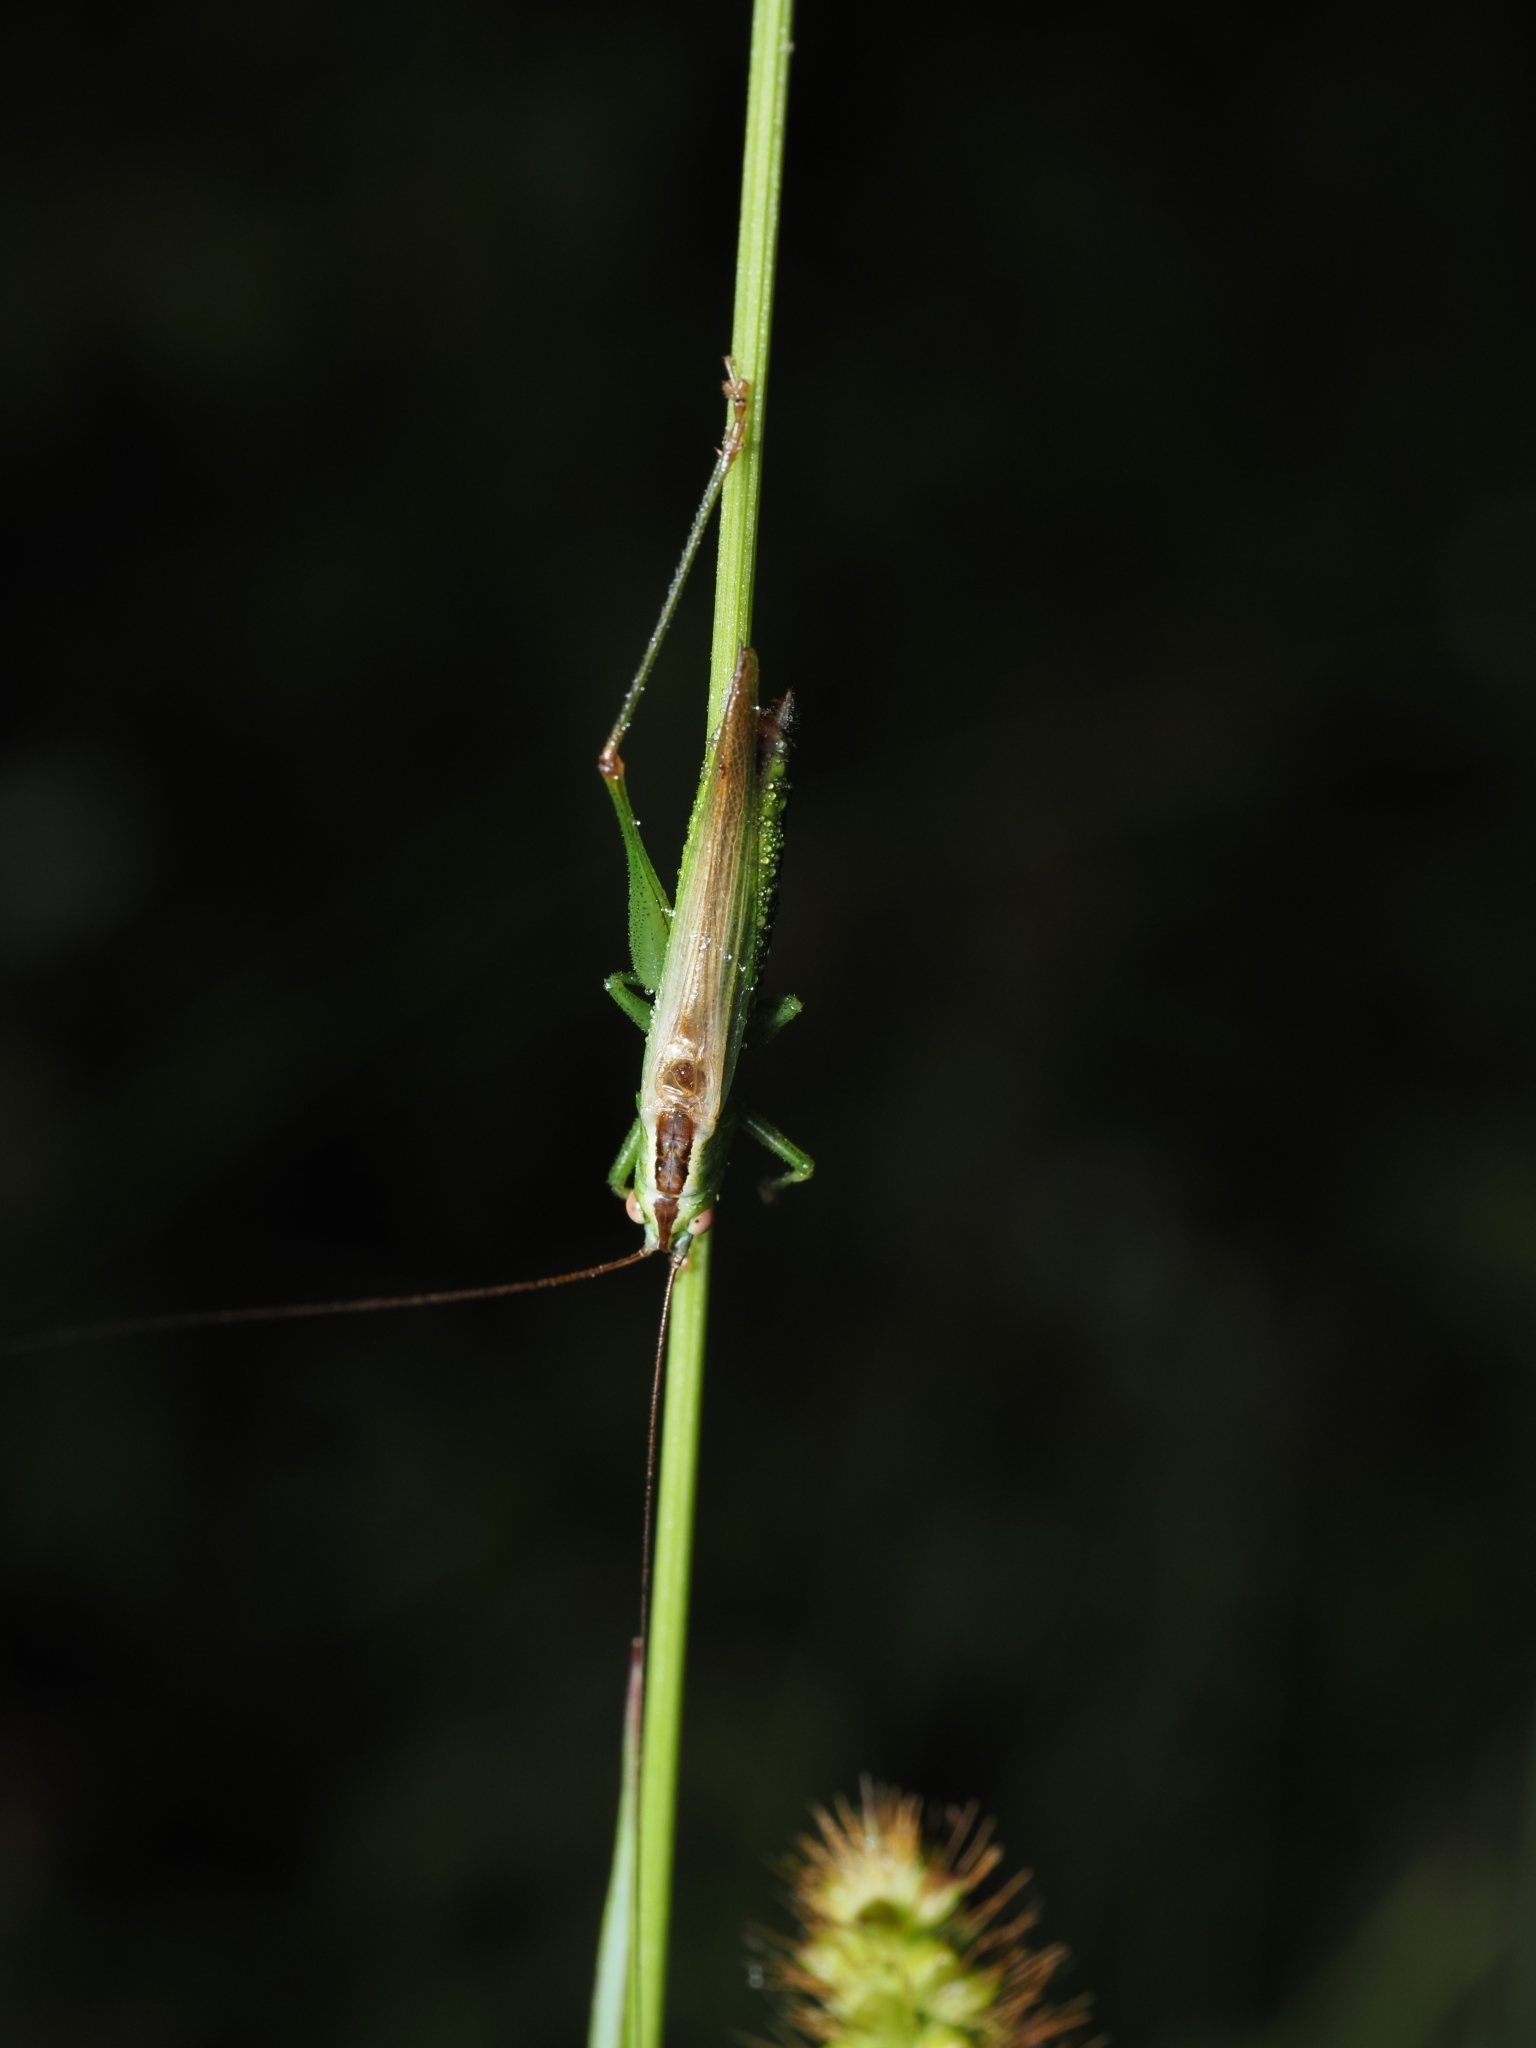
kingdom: Animalia
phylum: Arthropoda
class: Insecta
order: Orthoptera
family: Tettigoniidae
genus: Conocephalus
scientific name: Conocephalus fuscus
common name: Long-winged conehead
